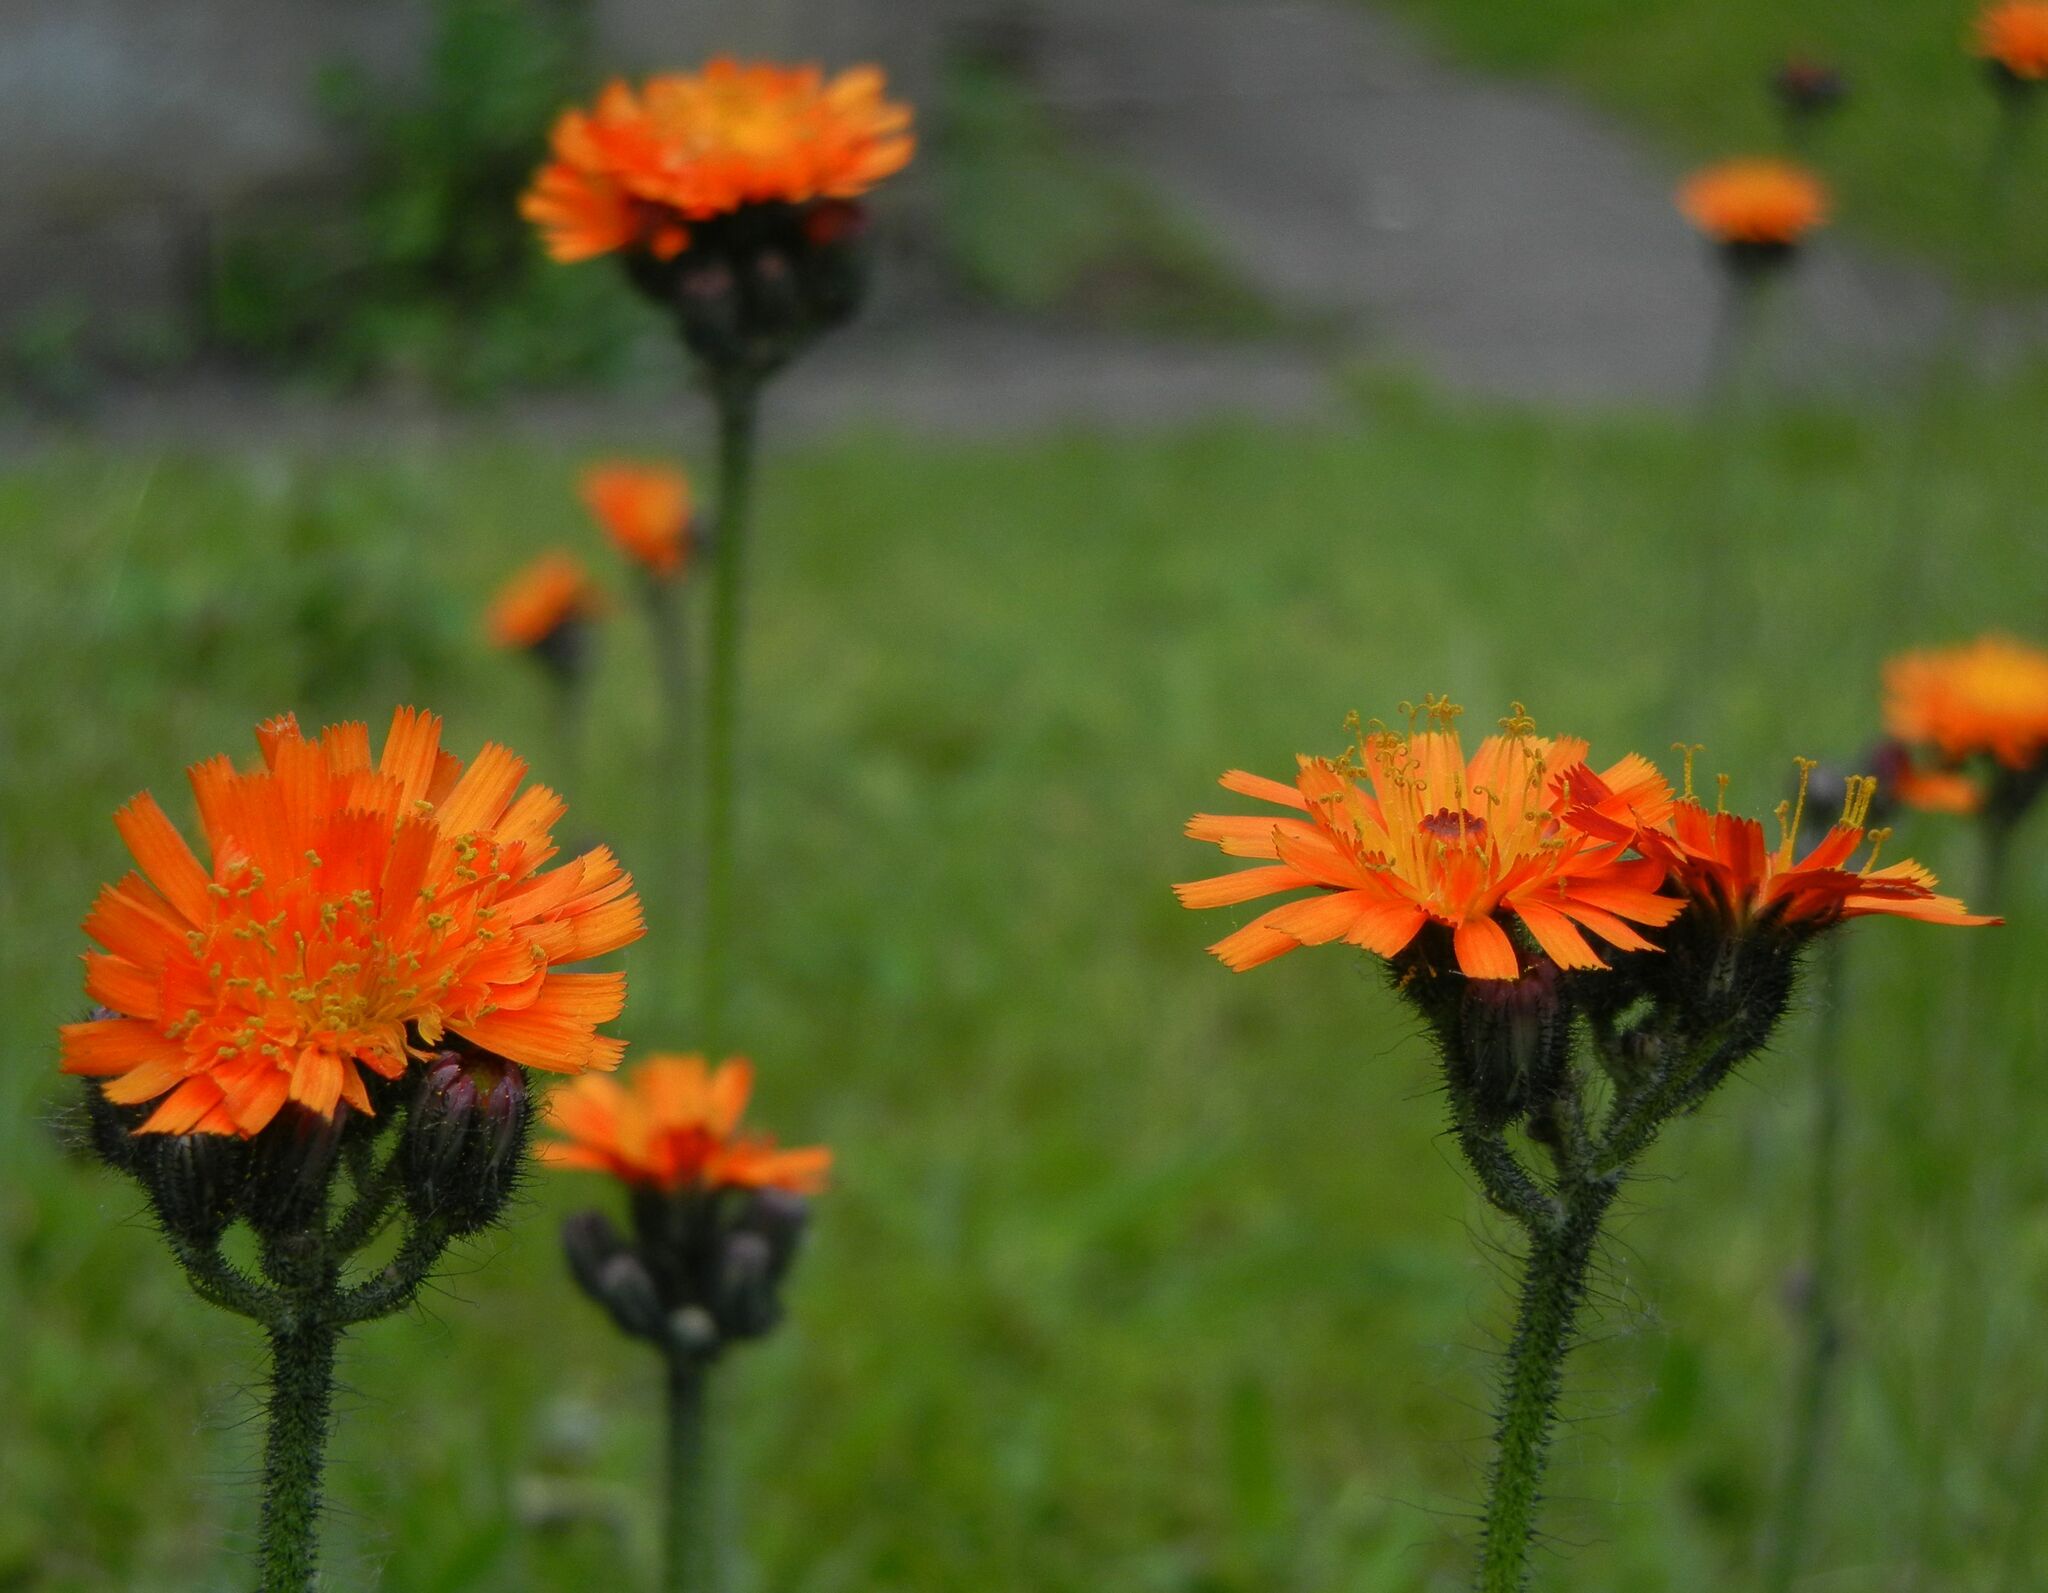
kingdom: Plantae
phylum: Tracheophyta
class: Magnoliopsida
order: Asterales
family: Asteraceae
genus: Pilosella
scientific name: Pilosella aurantiaca
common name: Fox-and-cubs
